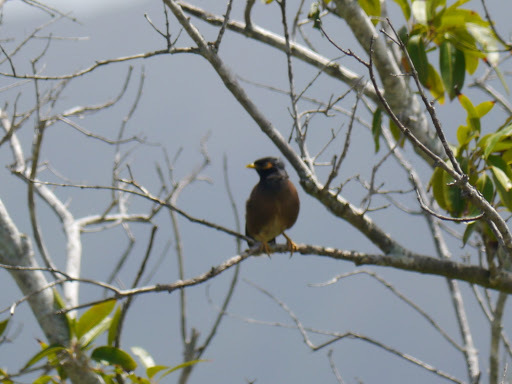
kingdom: Animalia
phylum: Chordata
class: Aves
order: Passeriformes
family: Sturnidae
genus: Acridotheres
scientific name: Acridotheres tristis
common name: Common myna
